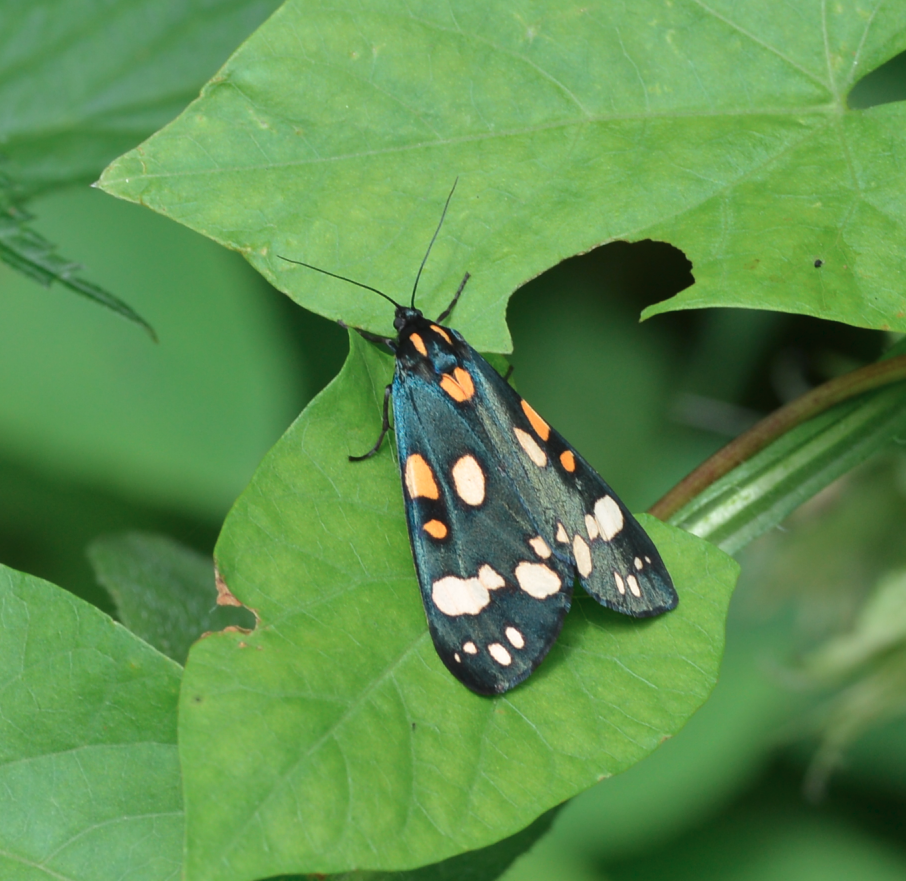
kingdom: Animalia
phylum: Arthropoda
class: Insecta
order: Lepidoptera
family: Erebidae
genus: Callimorpha
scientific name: Callimorpha dominula
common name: Scarlet tiger
